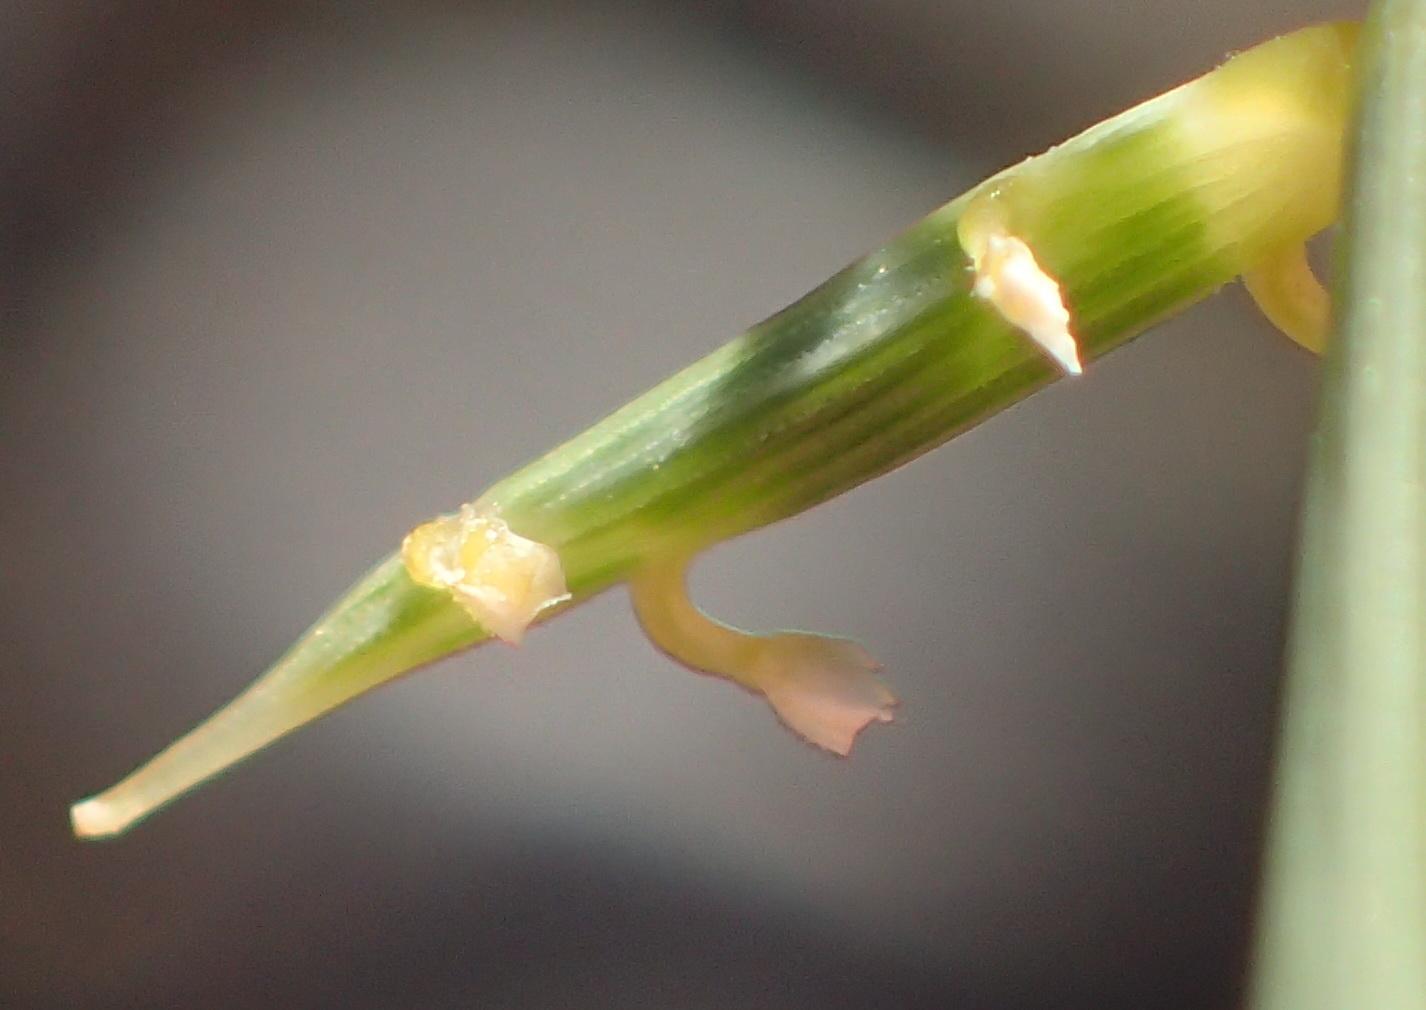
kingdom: Plantae
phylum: Tracheophyta
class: Liliopsida
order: Poales
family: Poaceae
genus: Cladoraphis
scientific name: Cladoraphis spinosa
